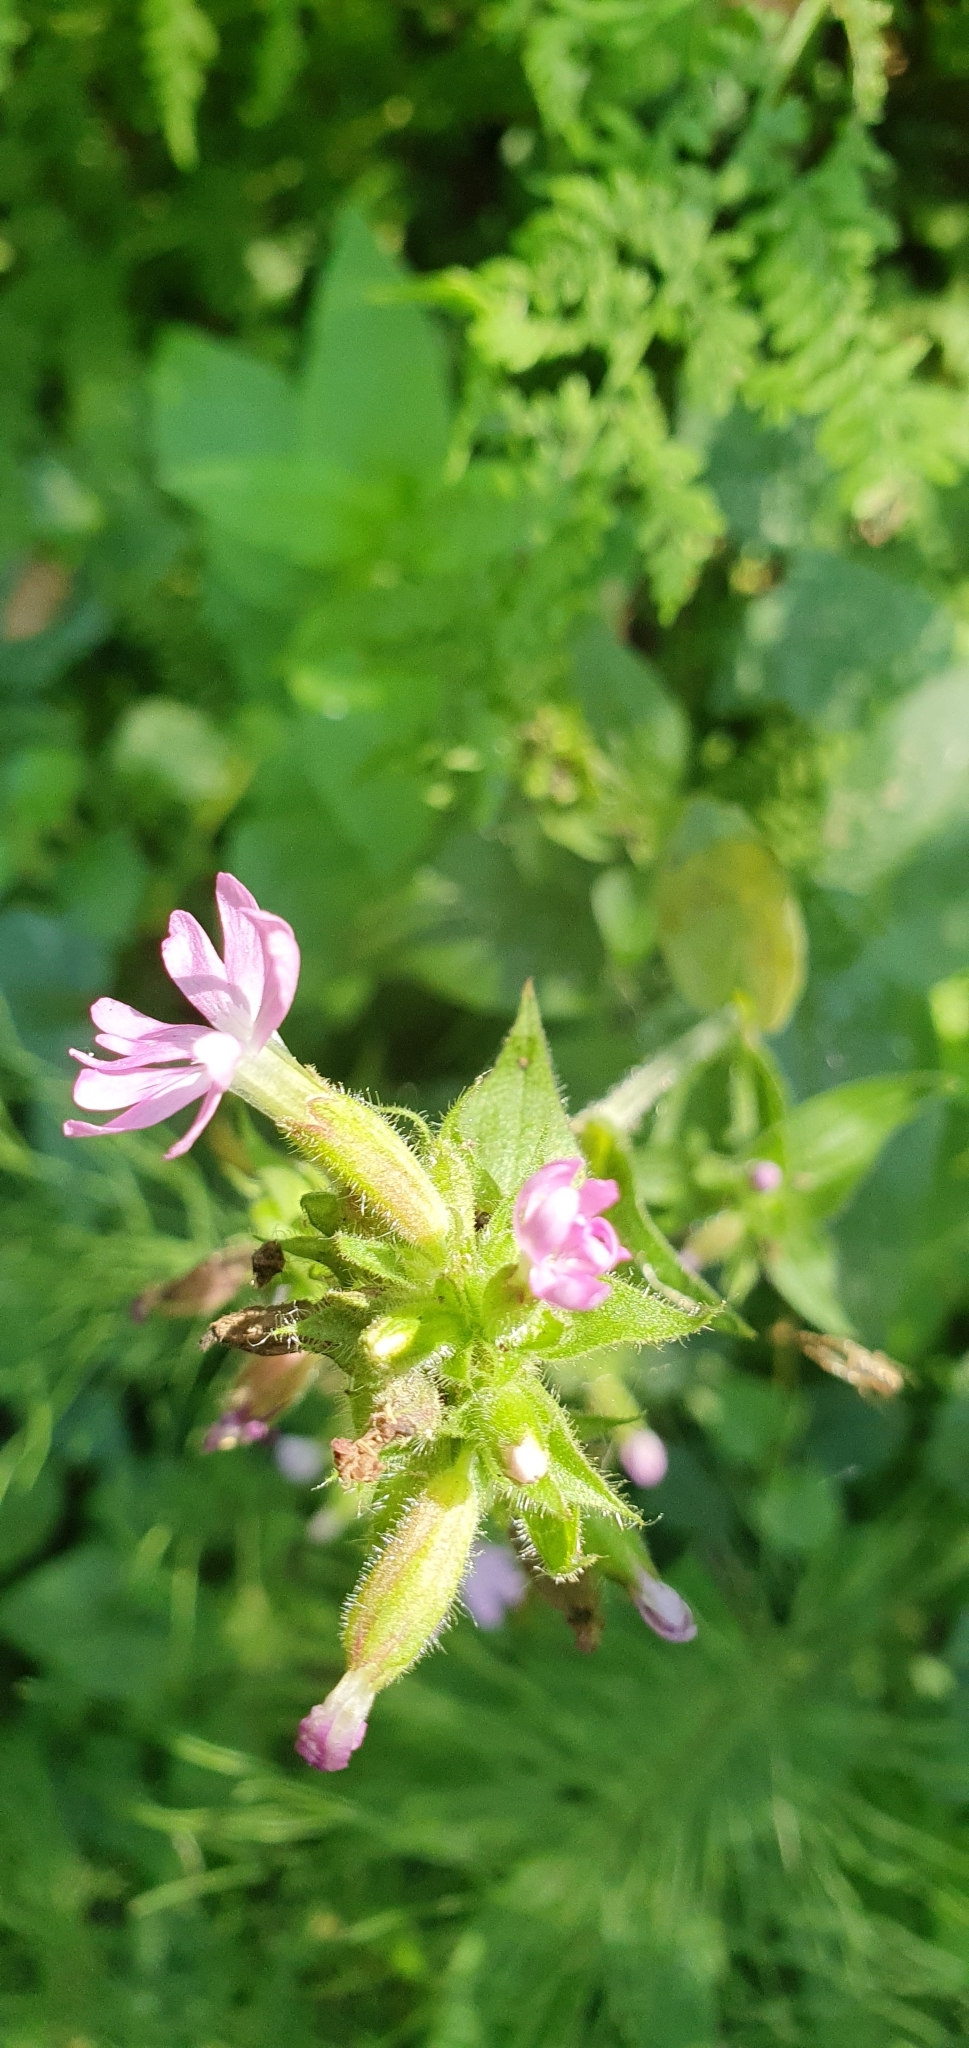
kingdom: Plantae
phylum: Tracheophyta
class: Magnoliopsida
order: Caryophyllales
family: Caryophyllaceae
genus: Silene
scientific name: Silene dioica
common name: Red campion
